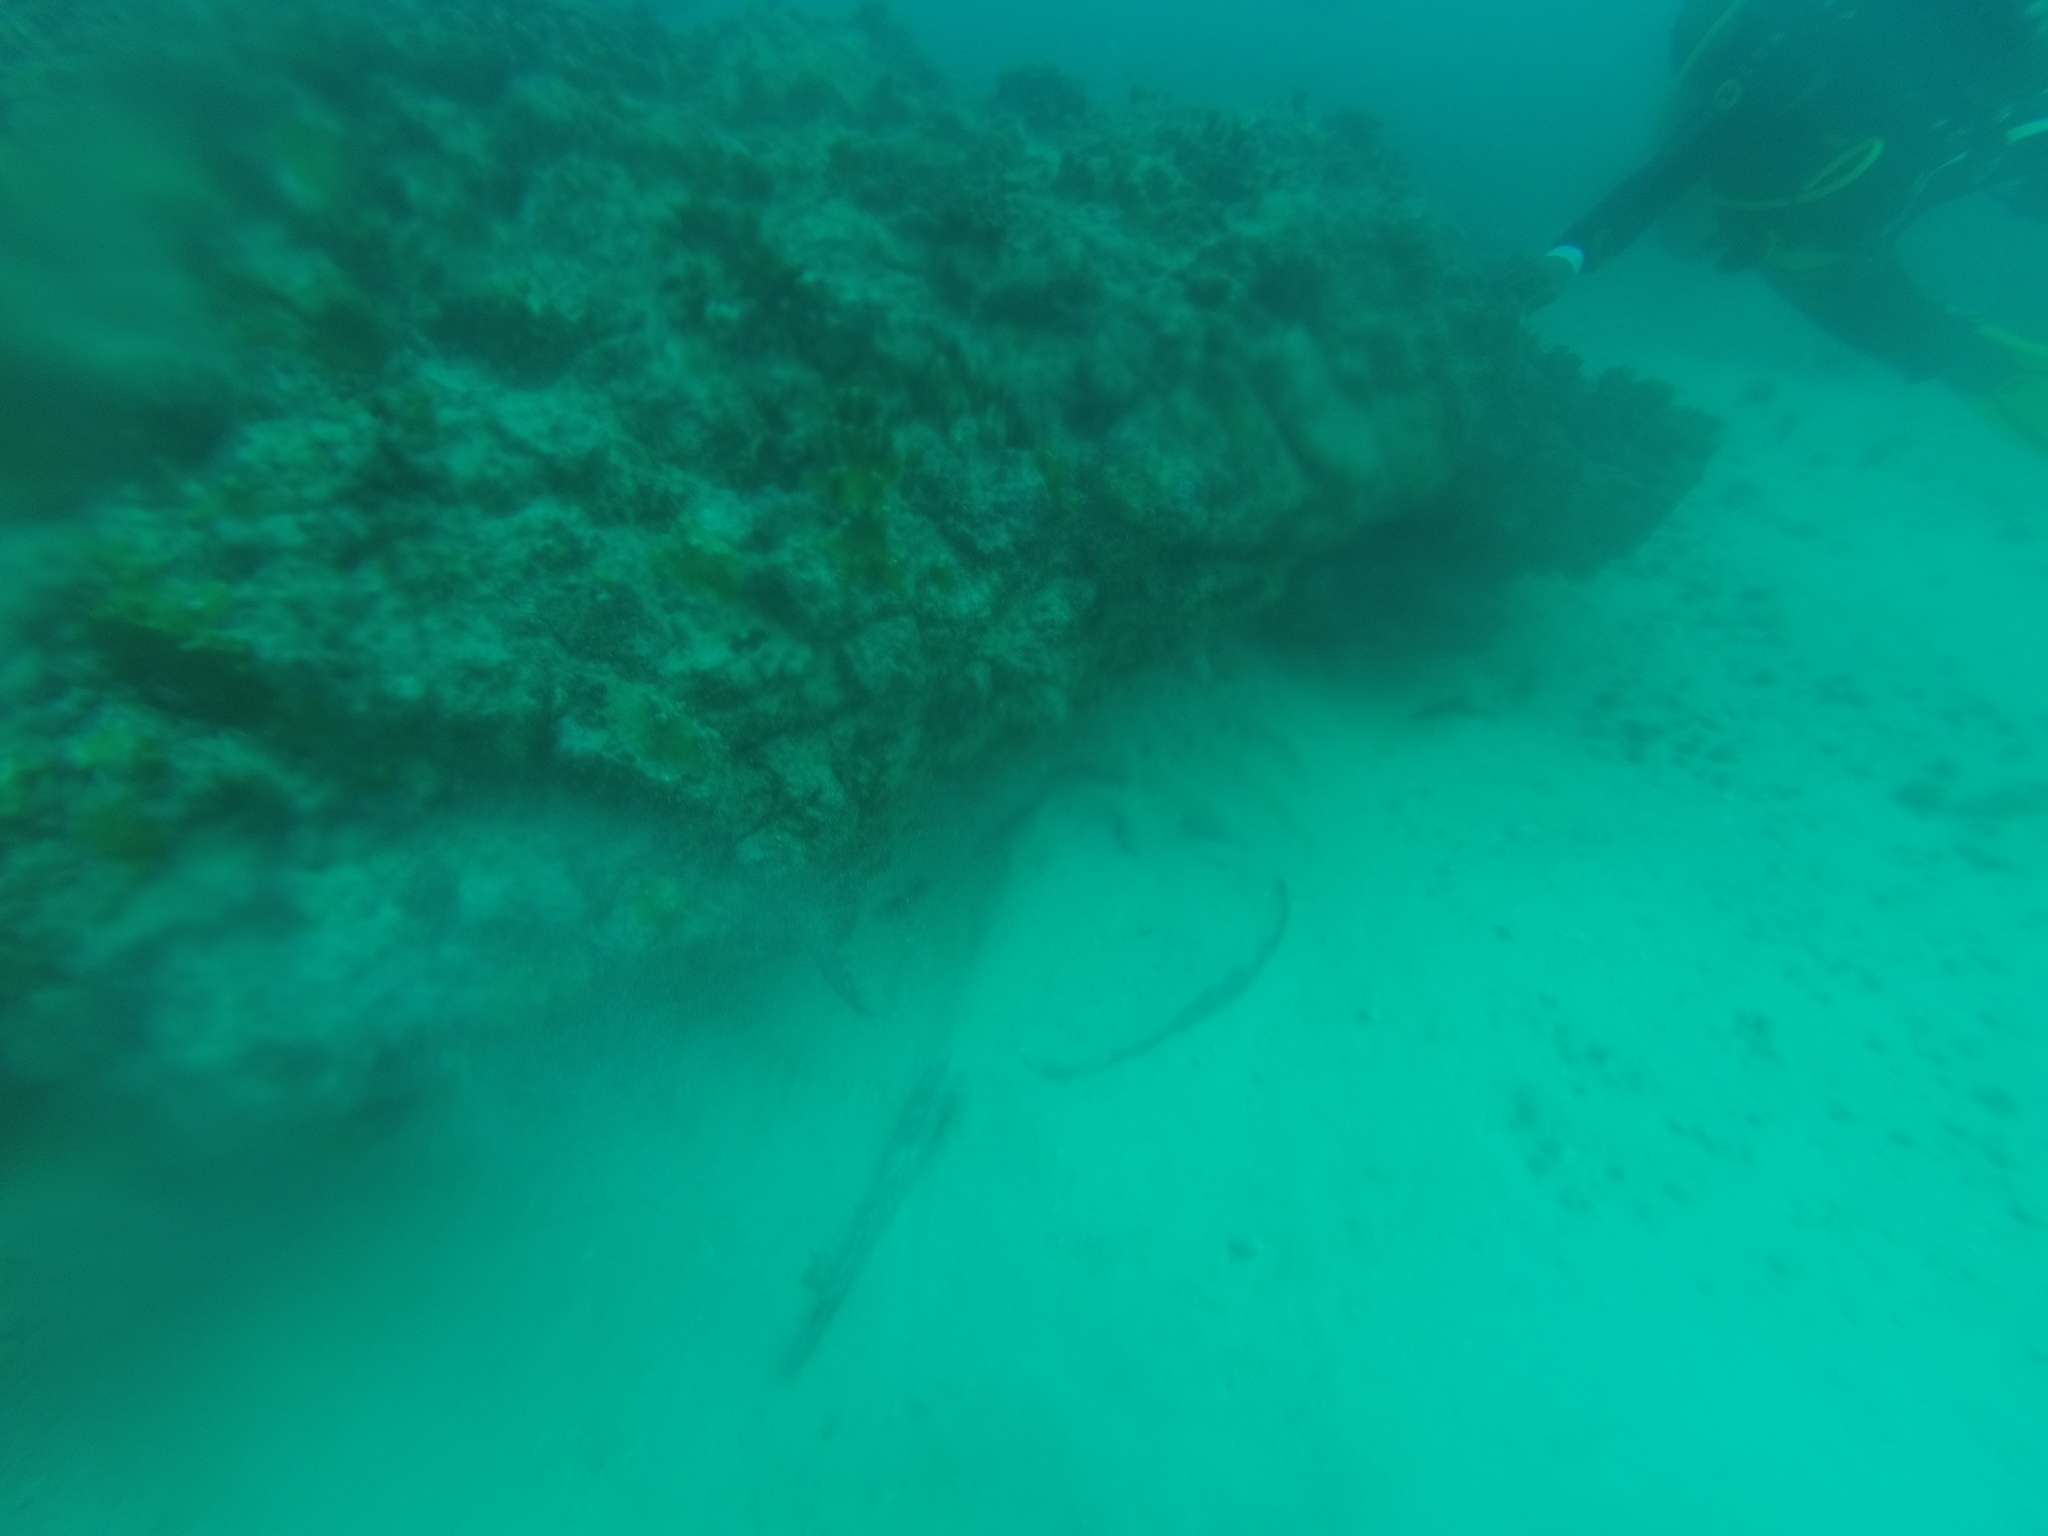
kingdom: Animalia
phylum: Chordata
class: Elasmobranchii
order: Myliobatiformes
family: Dasyatidae
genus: Taeniura
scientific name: Taeniura grabata
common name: Round stingray
